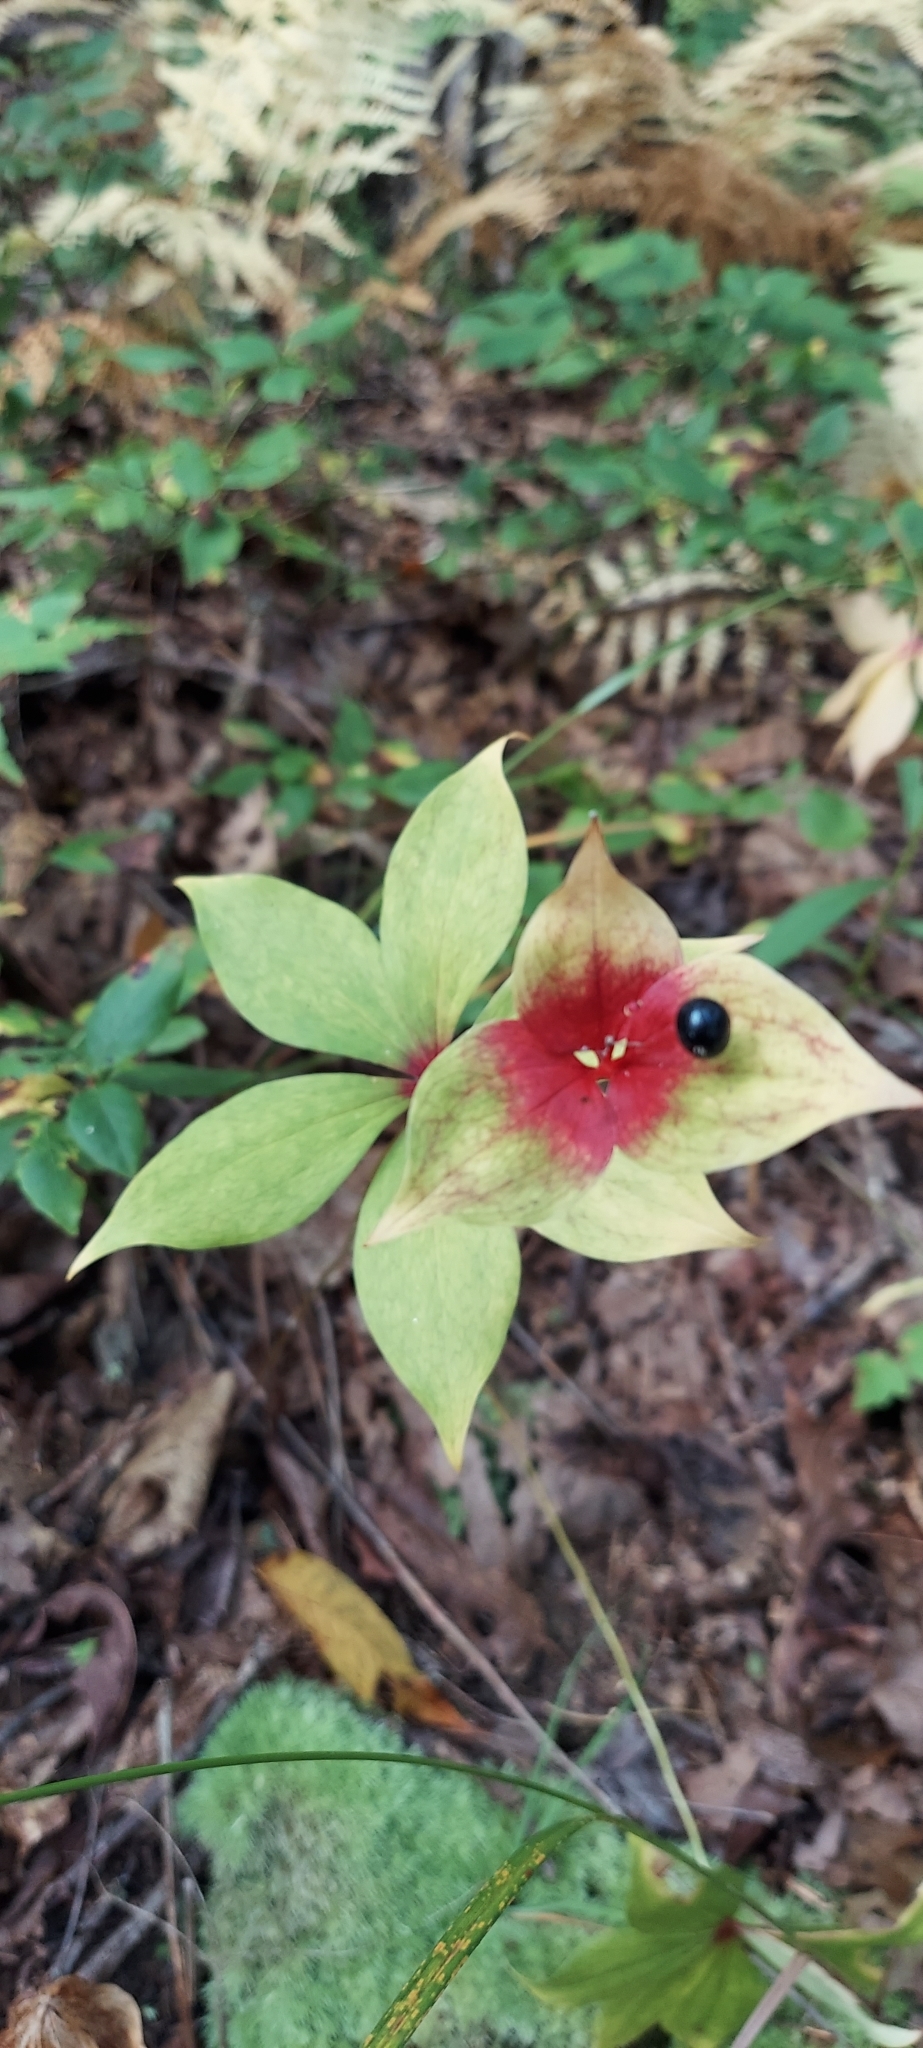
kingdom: Plantae
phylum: Tracheophyta
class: Liliopsida
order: Liliales
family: Liliaceae
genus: Medeola
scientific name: Medeola virginiana
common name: Indian cucumber-root
